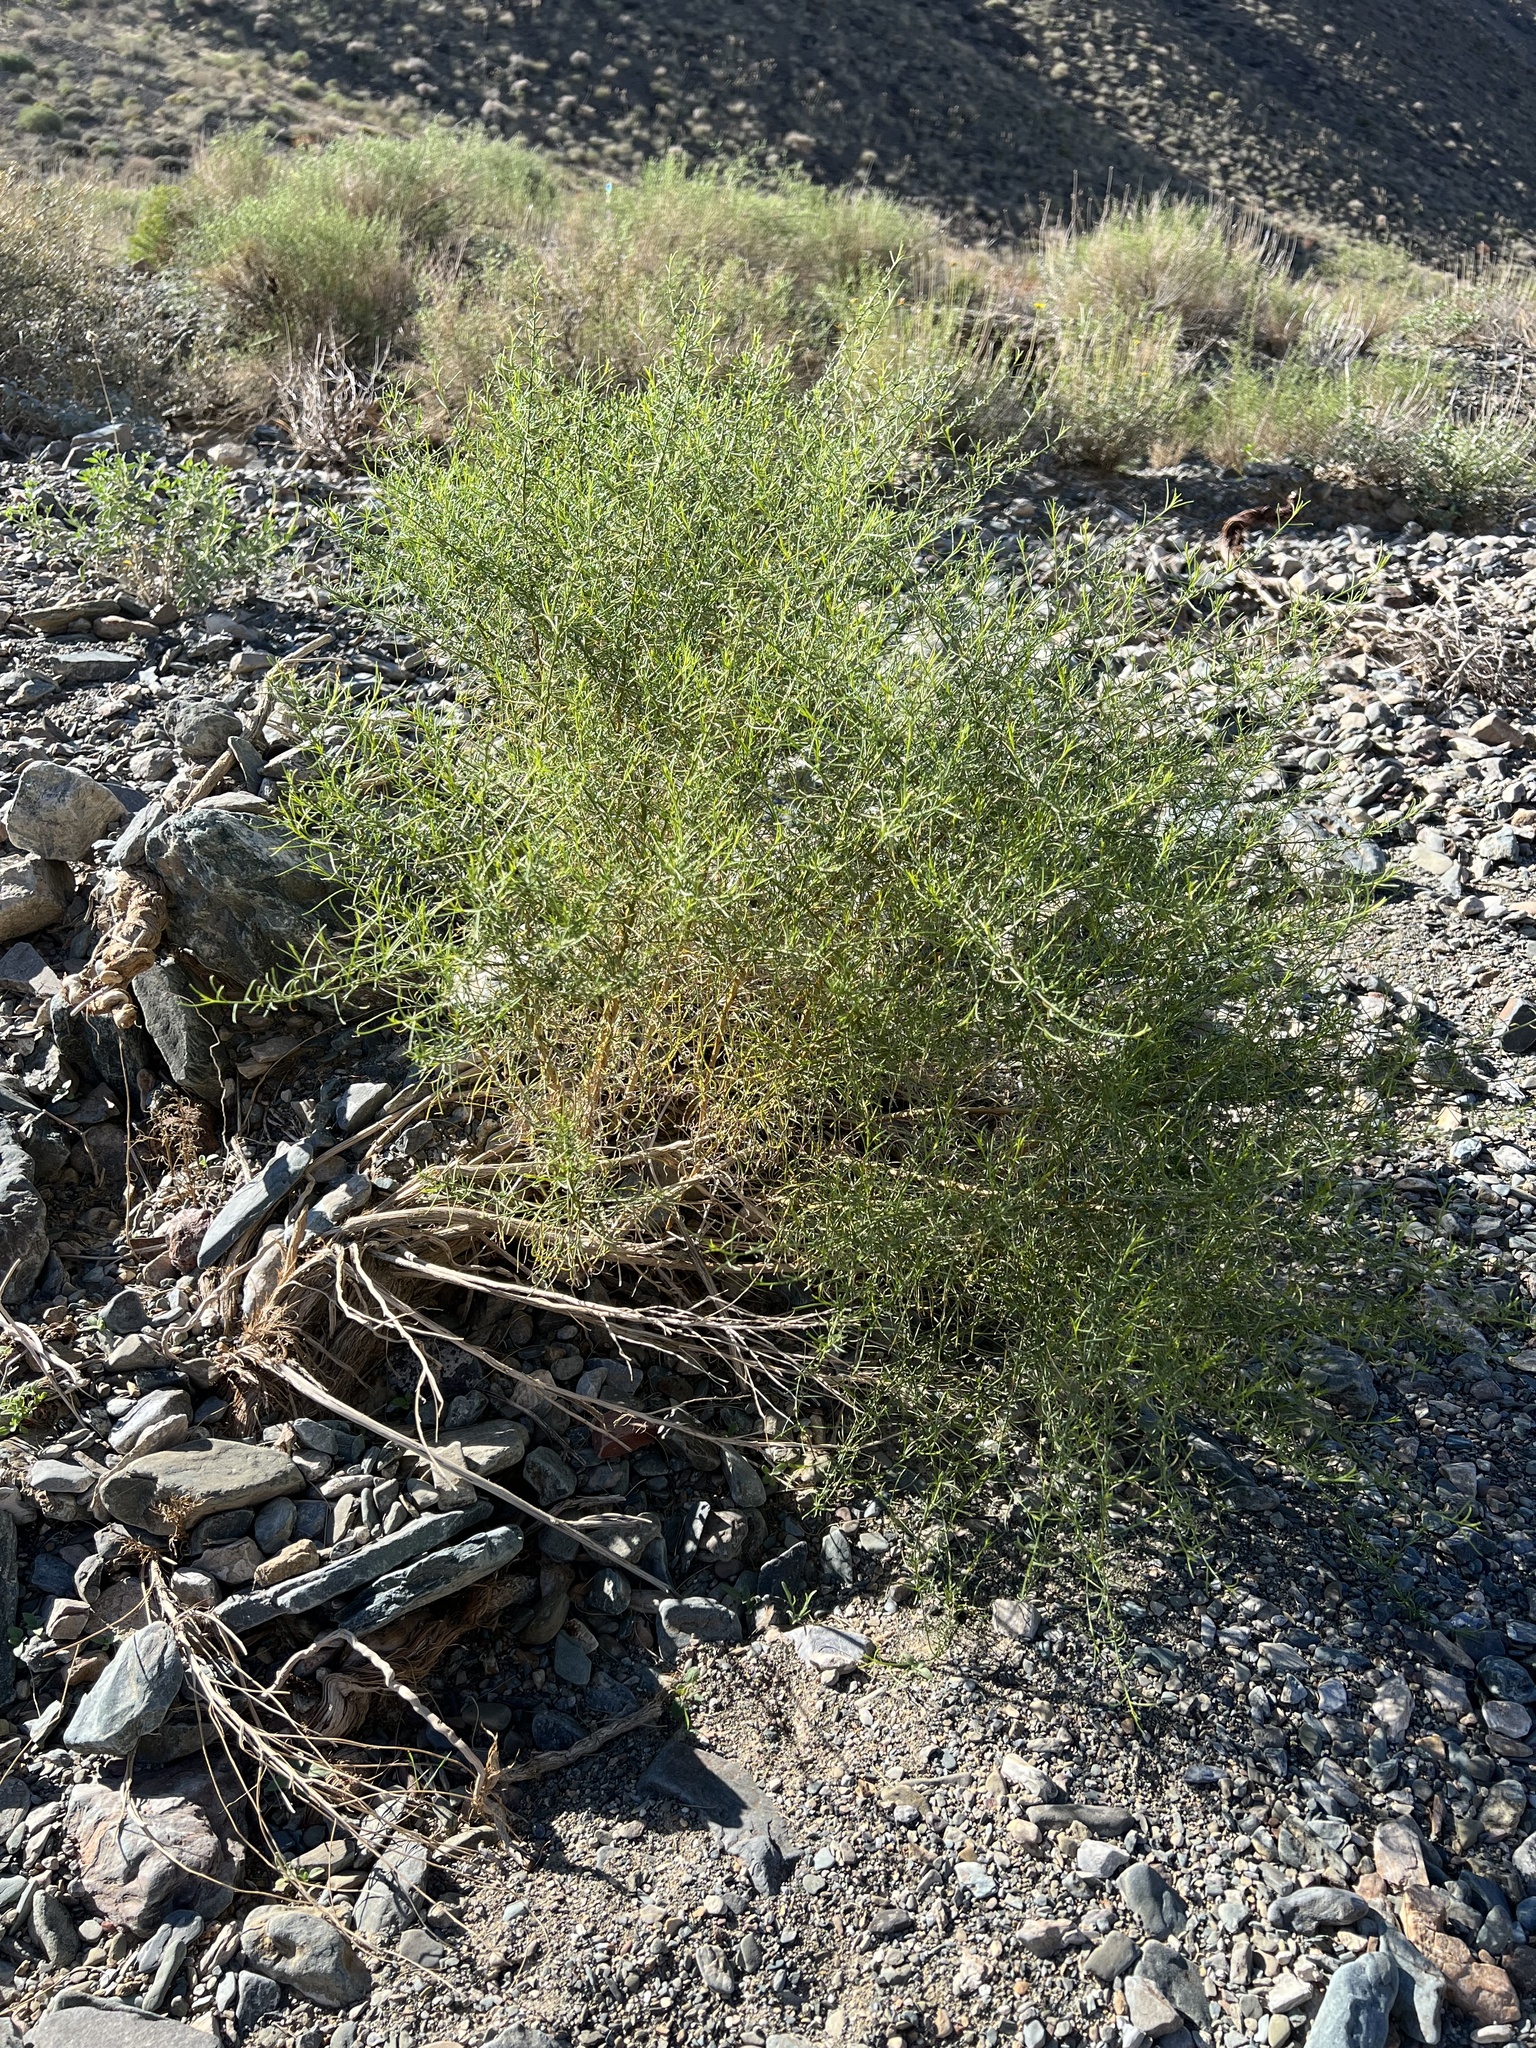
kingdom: Plantae
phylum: Tracheophyta
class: Magnoliopsida
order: Asterales
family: Asteraceae
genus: Ambrosia
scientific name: Ambrosia salsola
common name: Burrobrush
